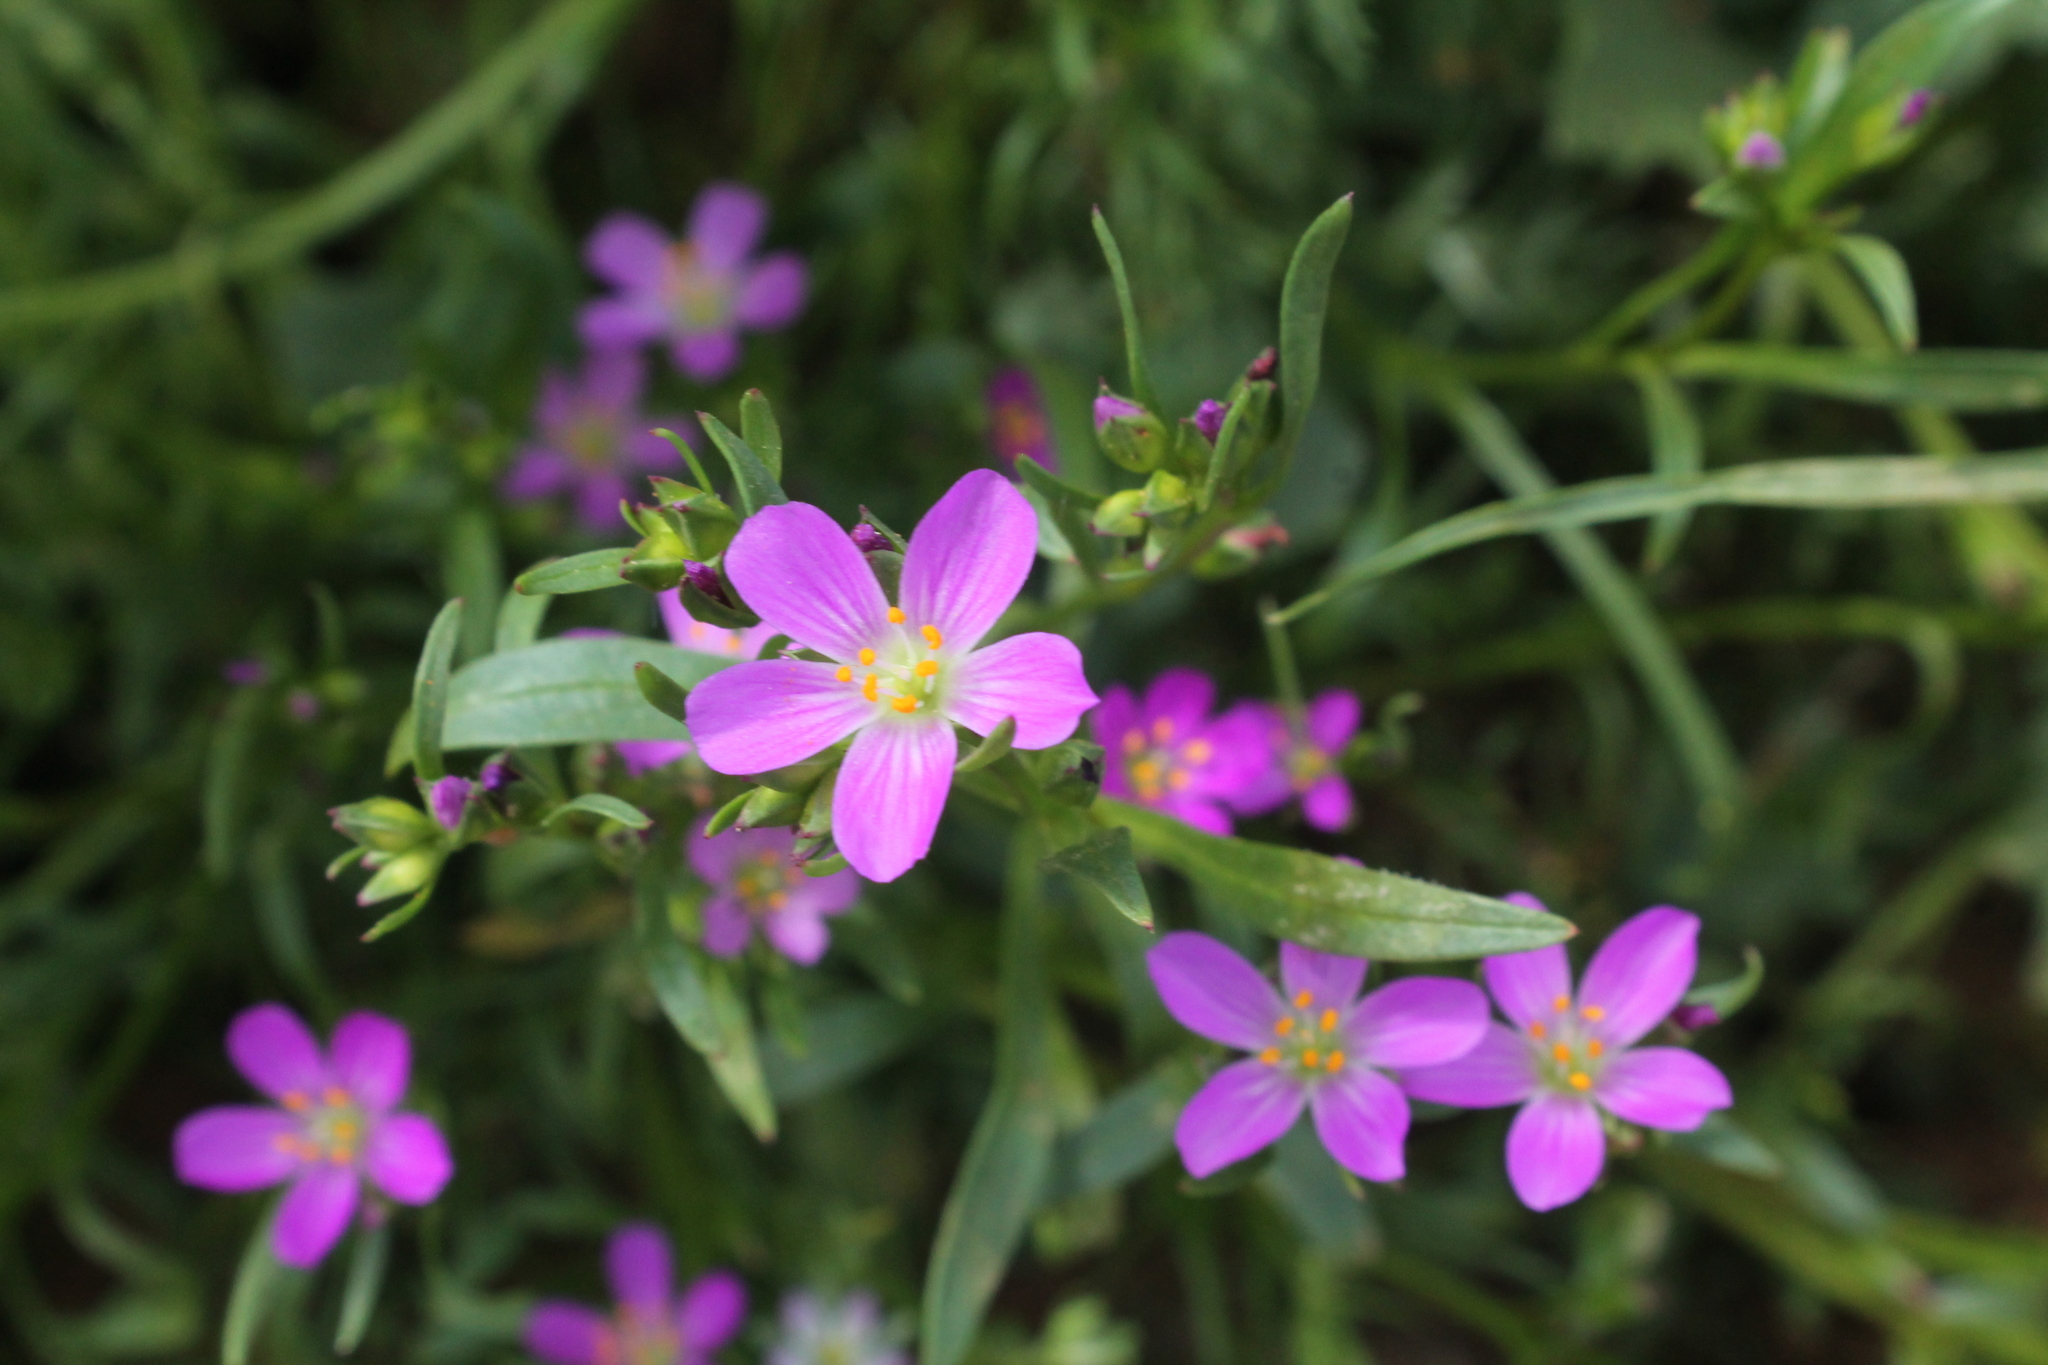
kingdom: Plantae
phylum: Tracheophyta
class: Magnoliopsida
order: Caryophyllales
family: Montiaceae
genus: Calandrinia
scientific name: Calandrinia menziesii
